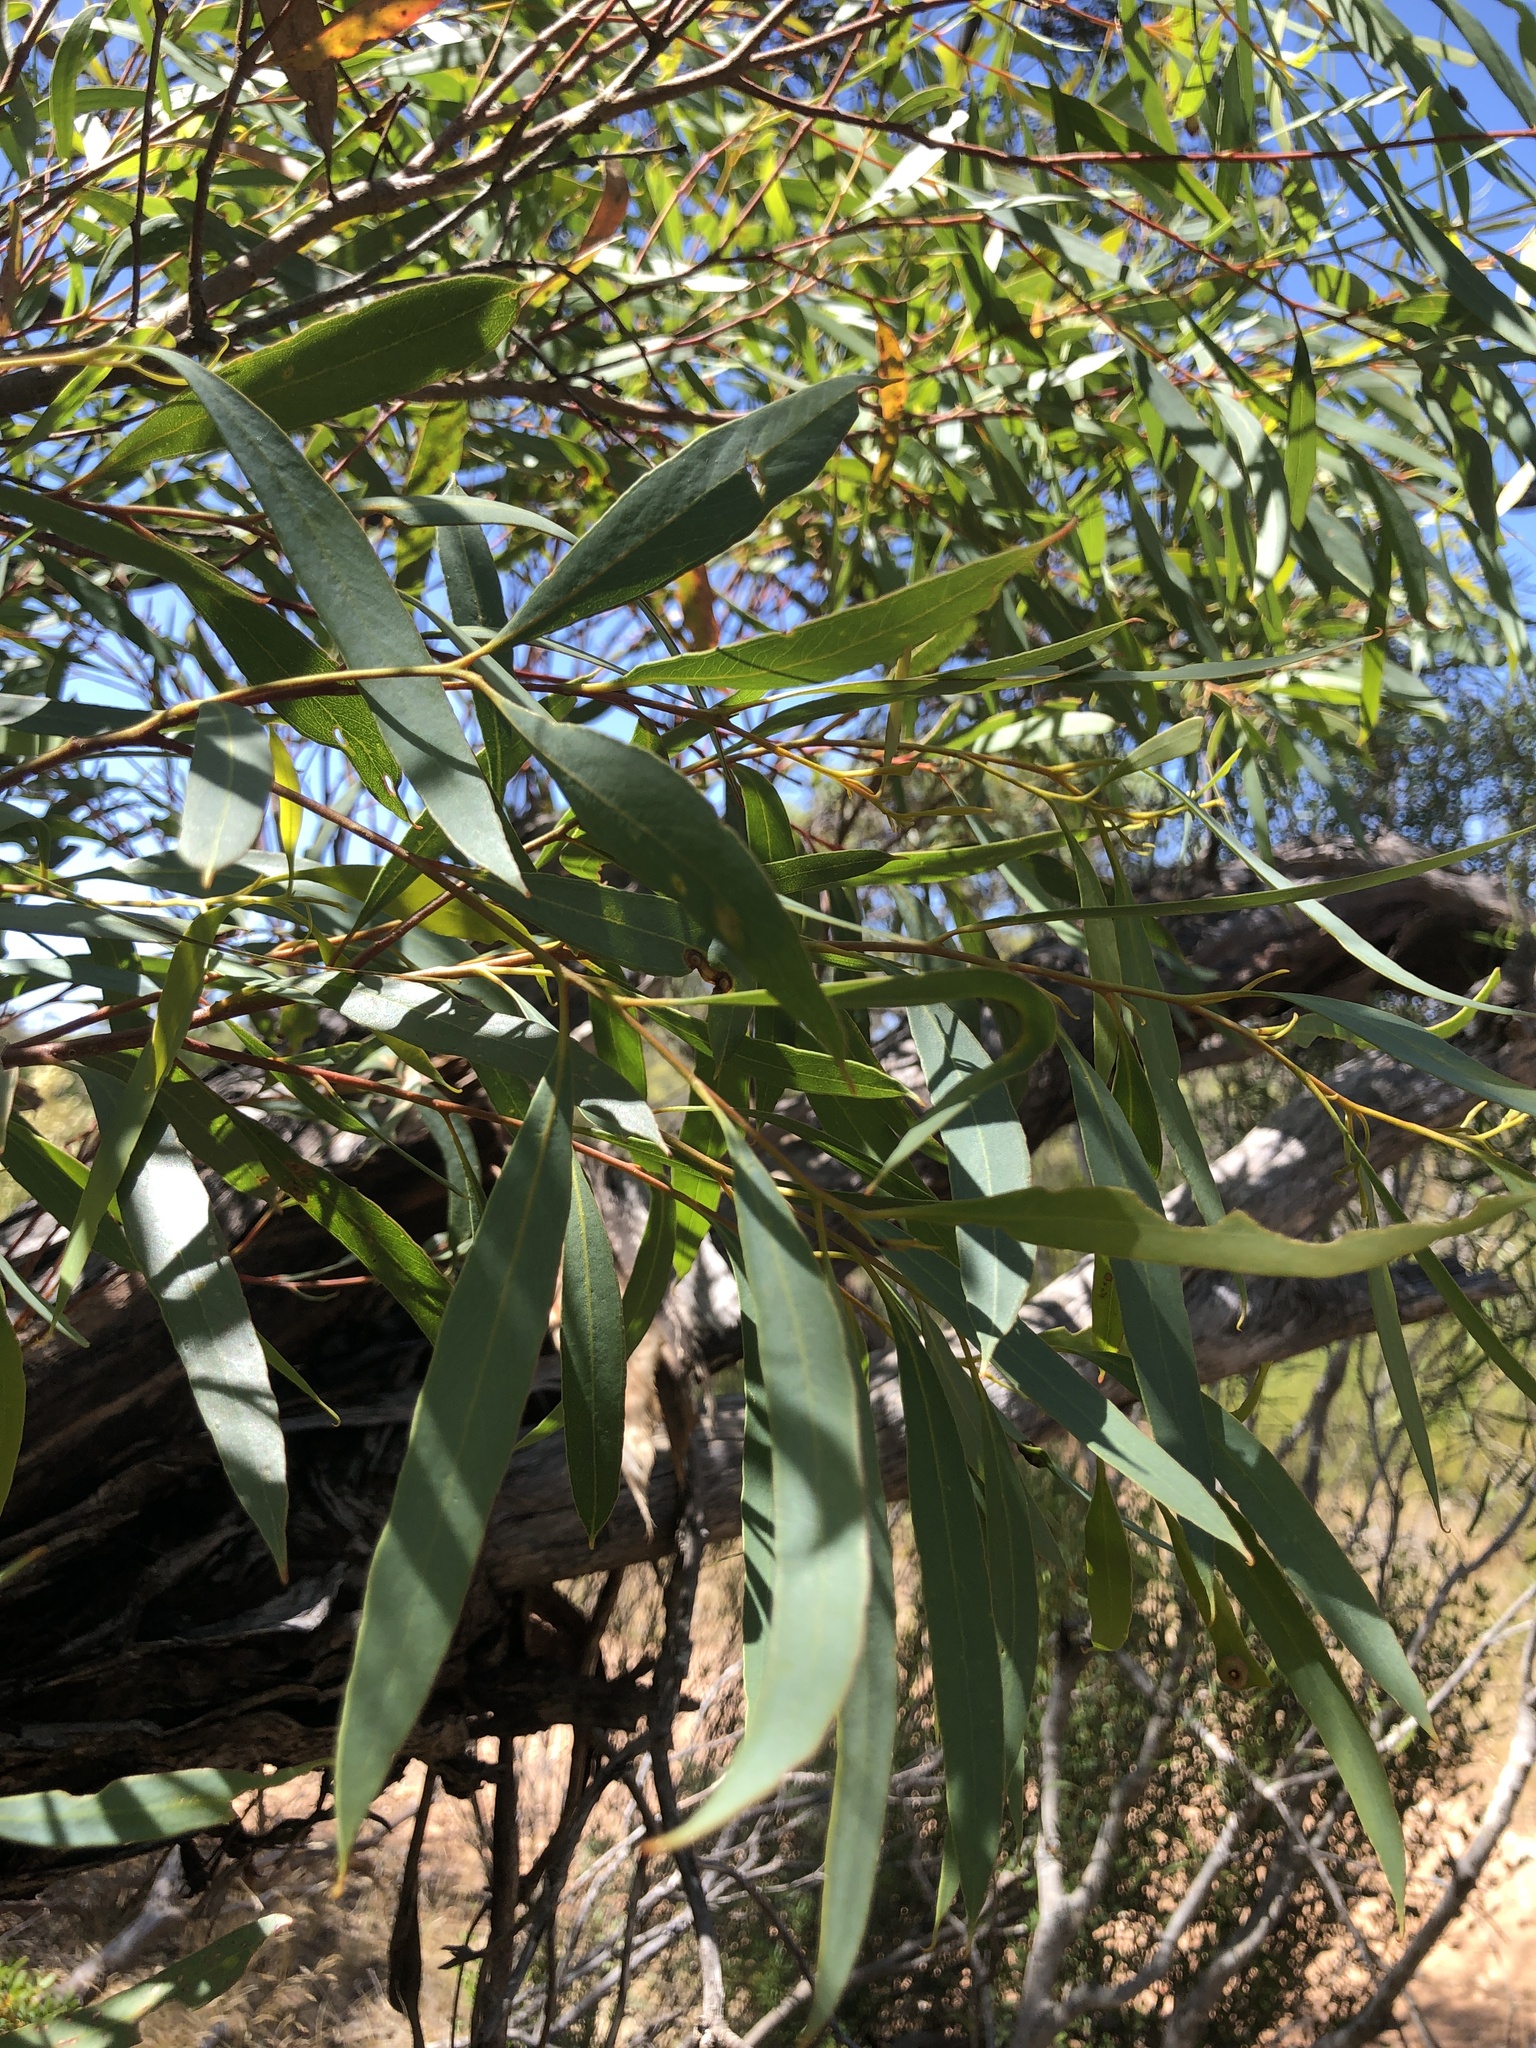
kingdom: Plantae
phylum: Tracheophyta
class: Magnoliopsida
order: Myrtales
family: Myrtaceae
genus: Eucalyptus
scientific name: Eucalyptus gracilis
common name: White mallee
